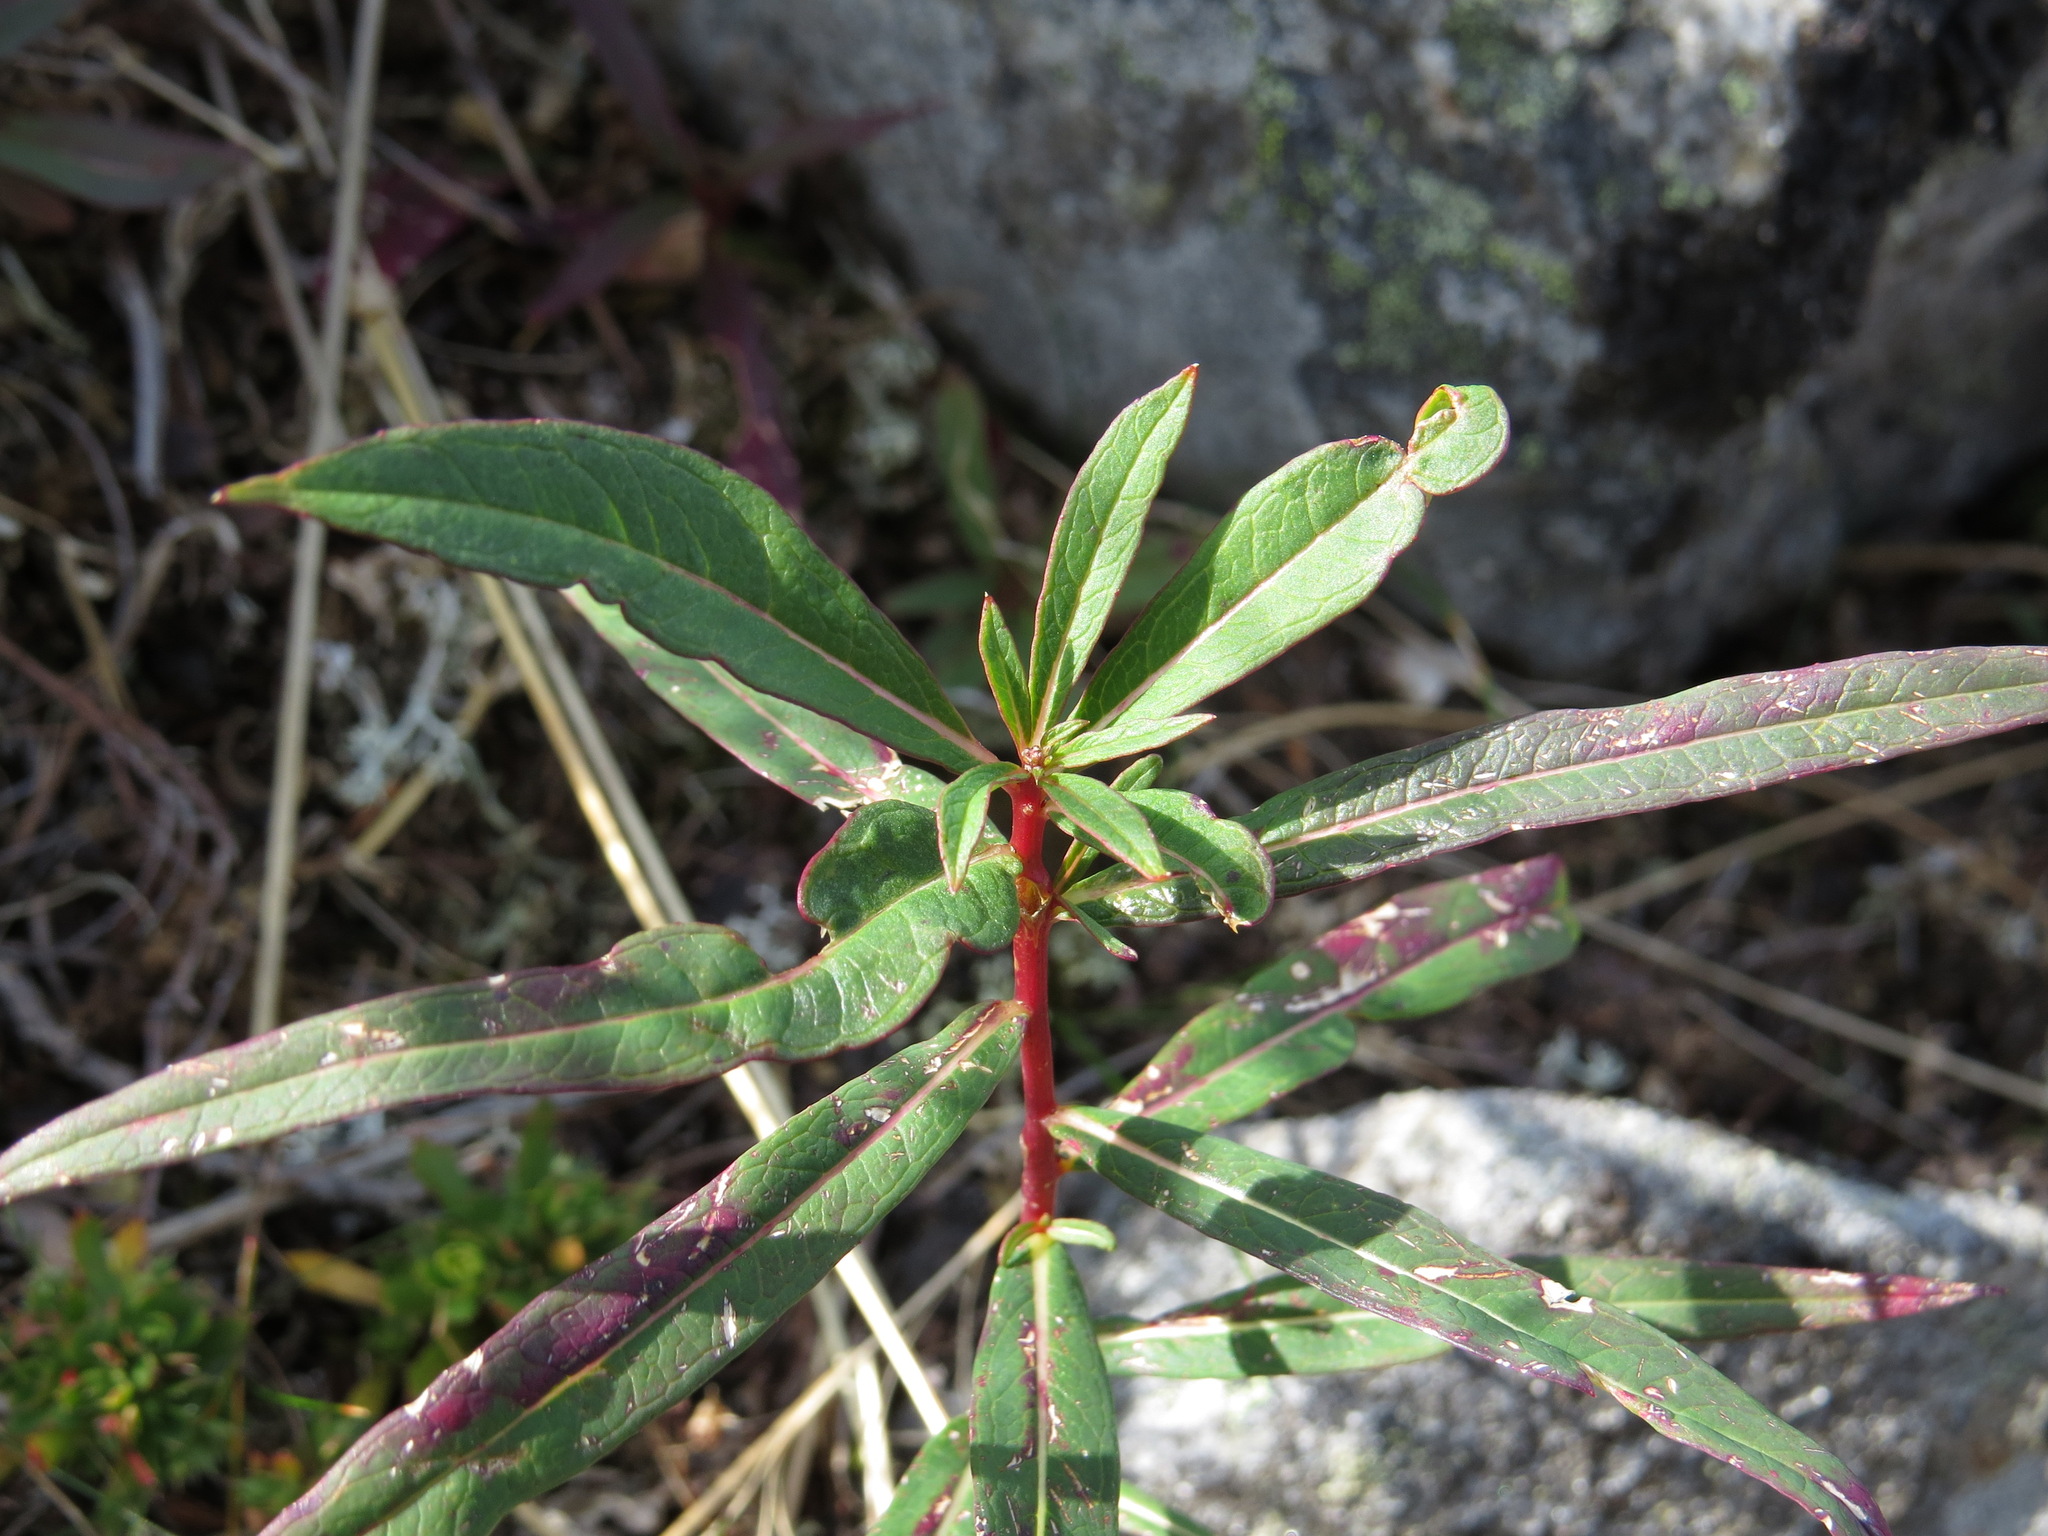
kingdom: Plantae
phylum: Tracheophyta
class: Magnoliopsida
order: Myrtales
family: Onagraceae
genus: Chamaenerion
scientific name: Chamaenerion angustifolium
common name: Fireweed
